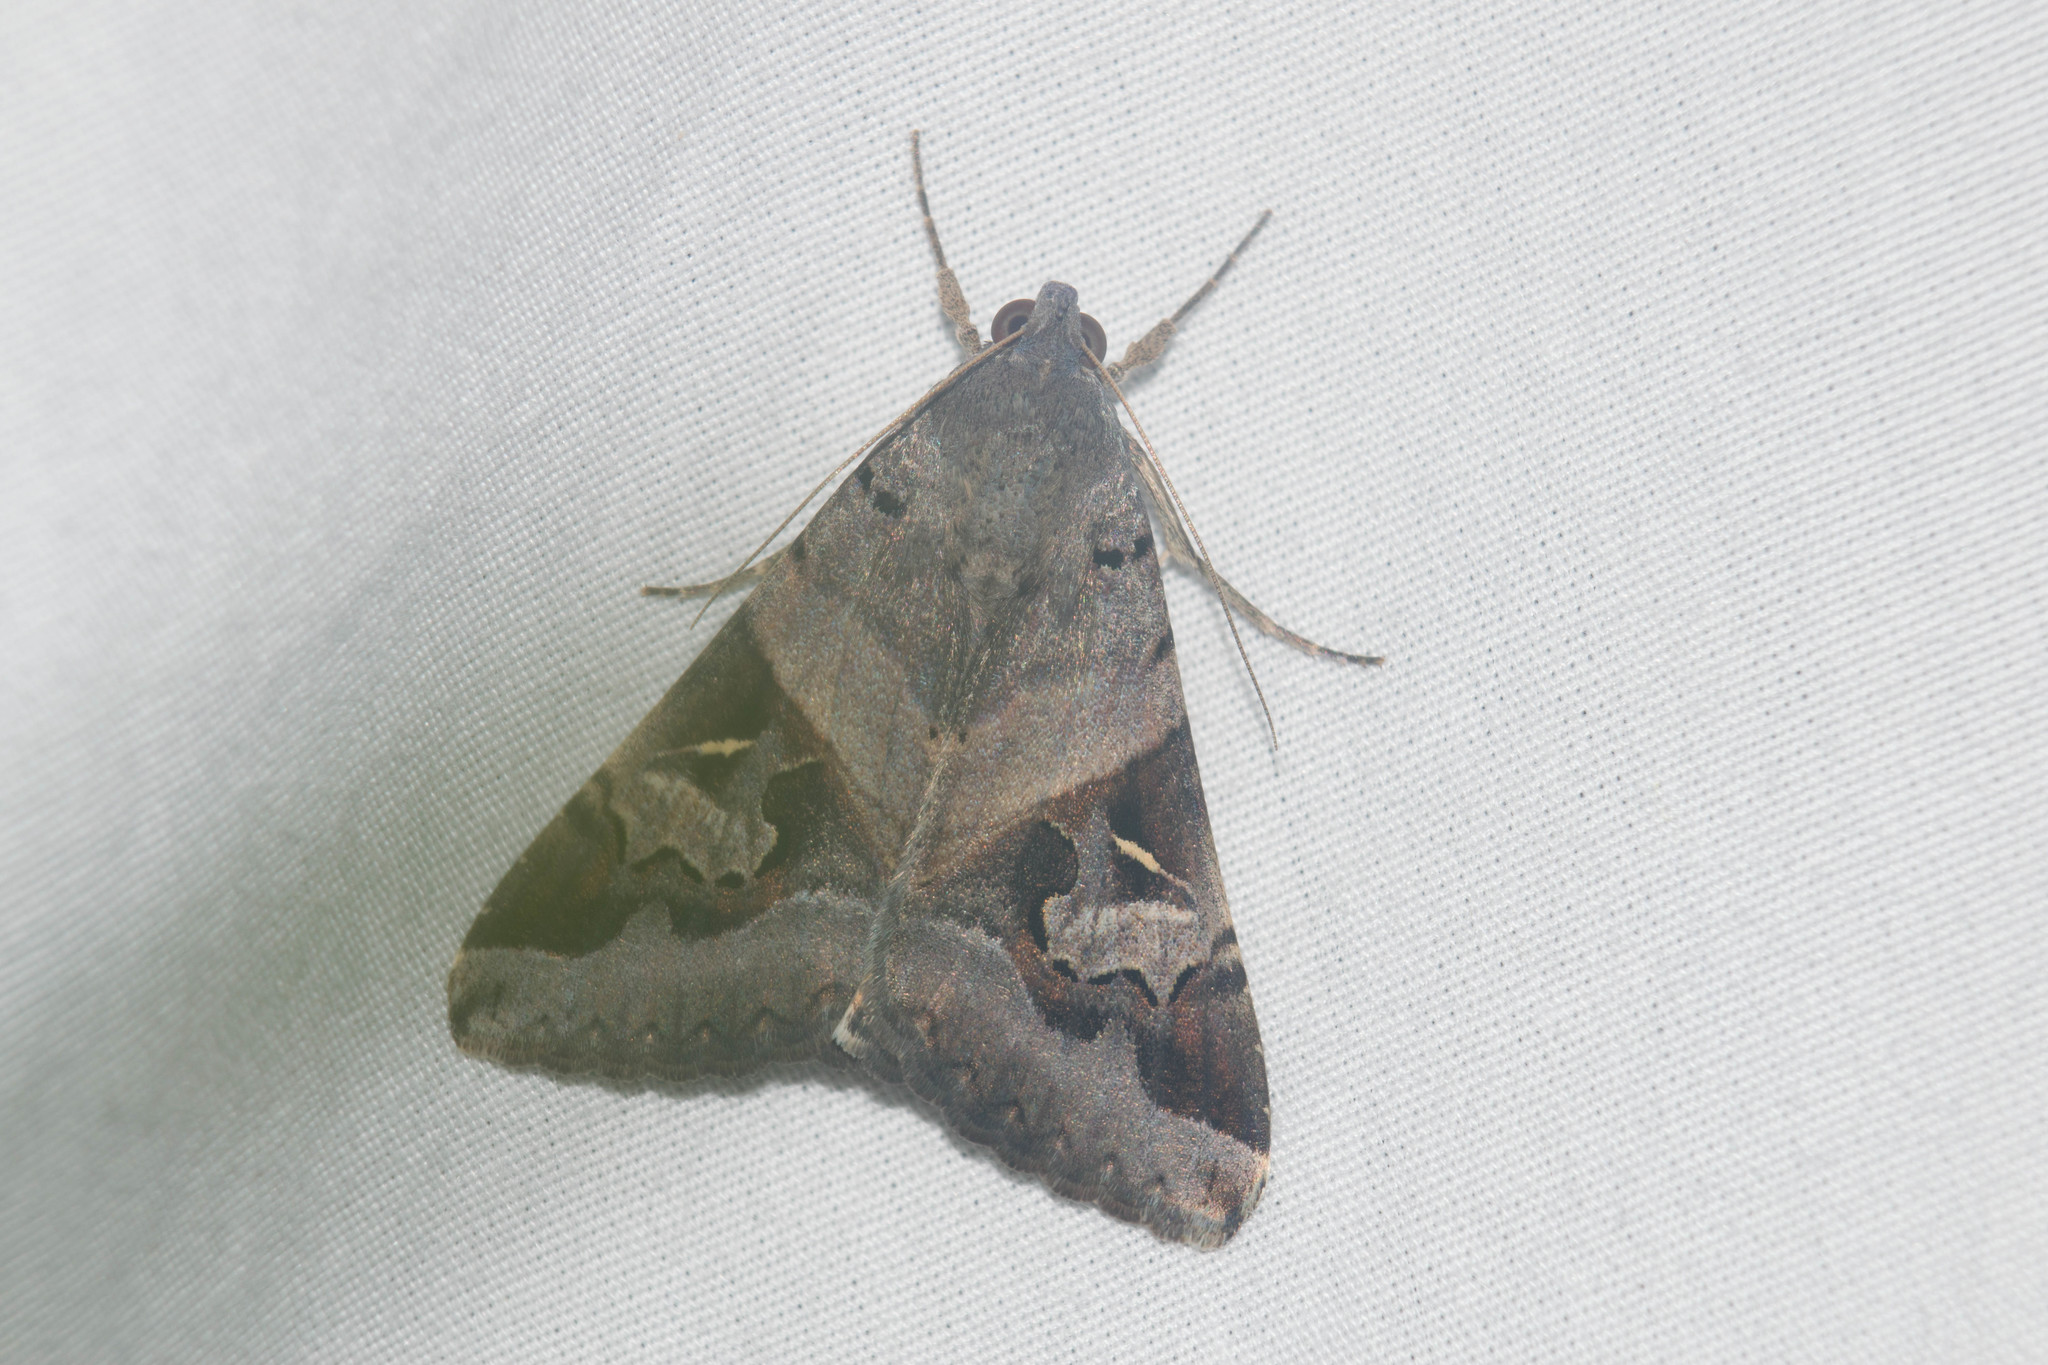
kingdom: Animalia
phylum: Arthropoda
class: Insecta
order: Lepidoptera
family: Erebidae
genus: Melipotis
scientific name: Melipotis indomita
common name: Moth
